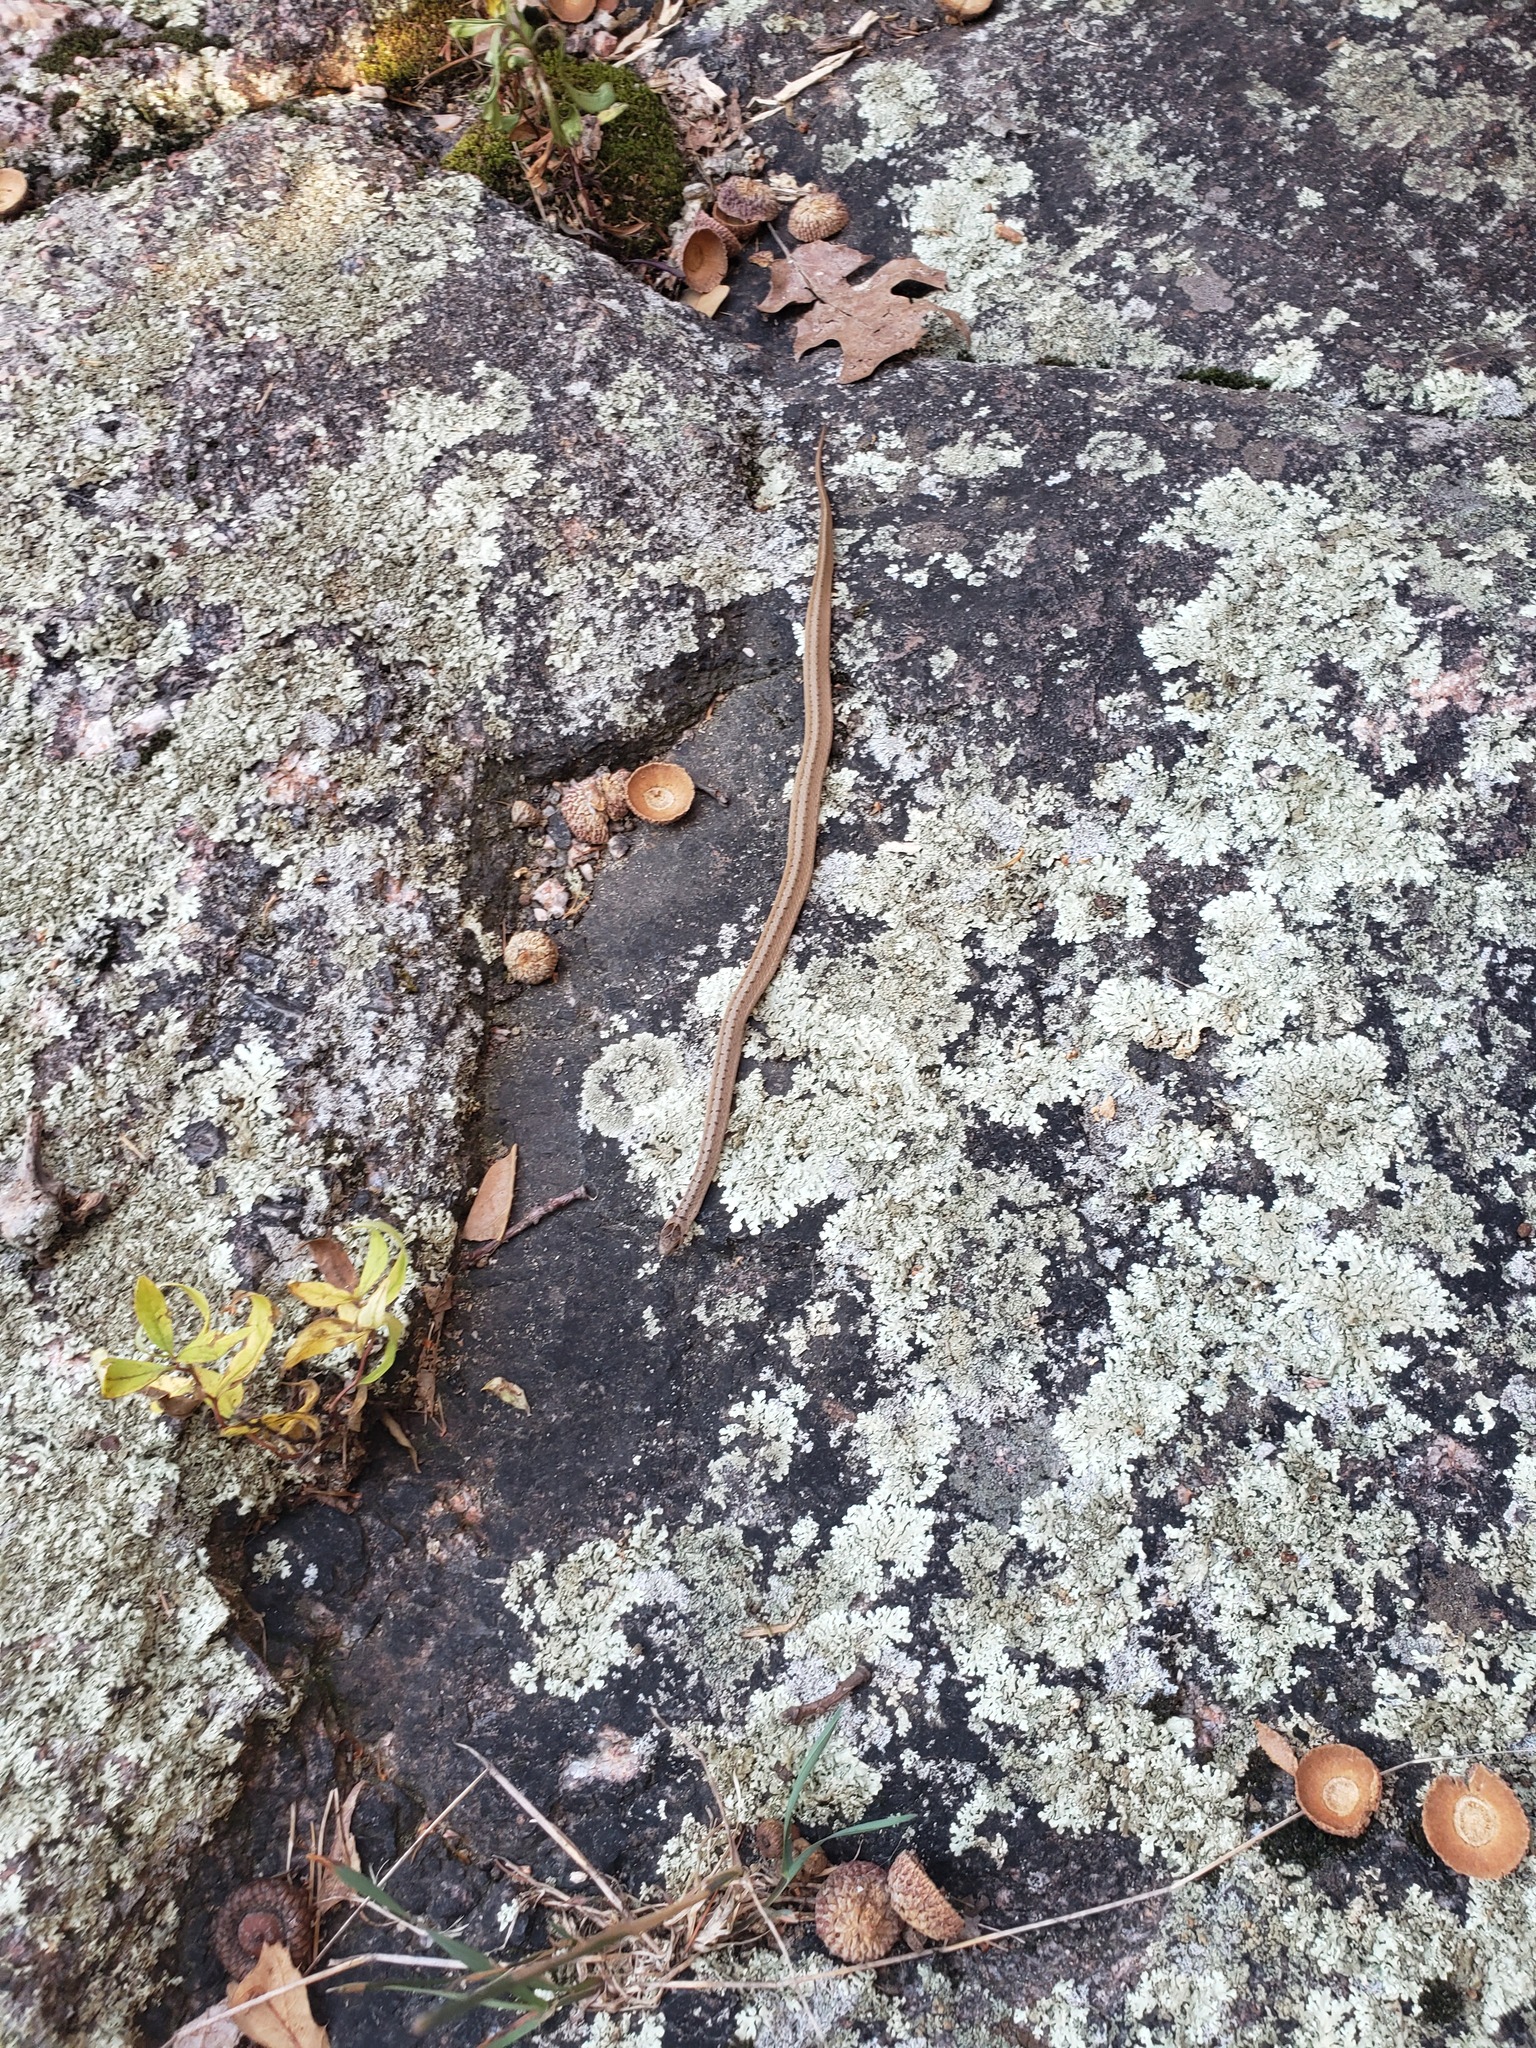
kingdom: Animalia
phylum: Chordata
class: Squamata
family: Colubridae
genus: Storeria
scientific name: Storeria dekayi
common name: (dekay’s) brown snake
